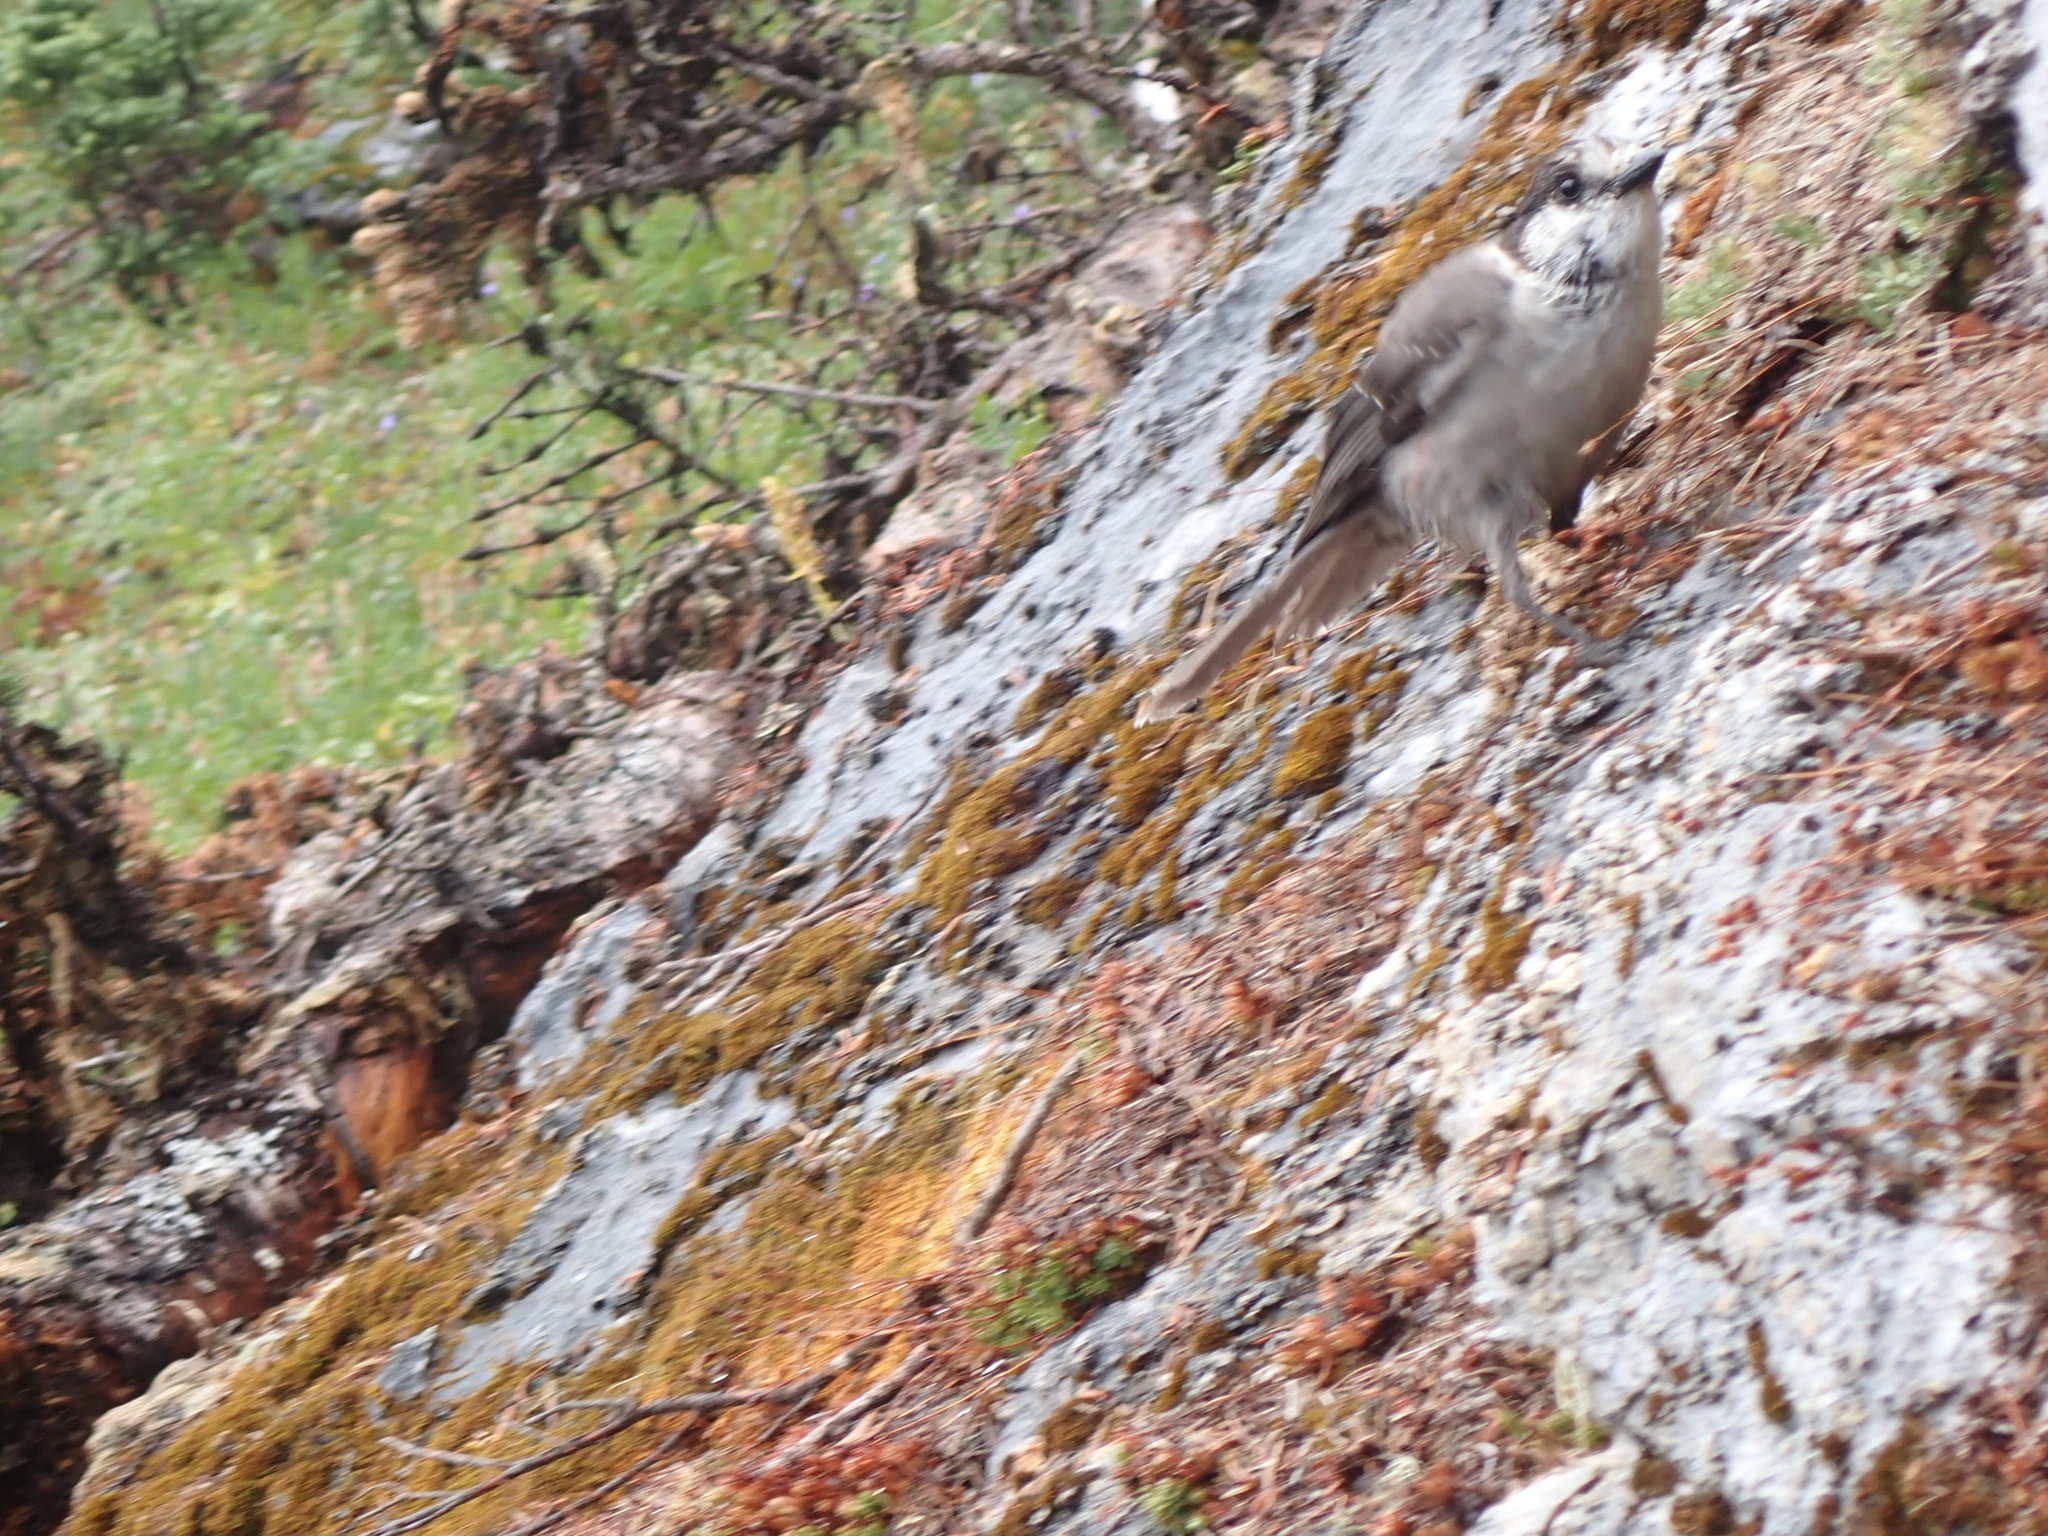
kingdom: Animalia
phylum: Chordata
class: Aves
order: Passeriformes
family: Corvidae
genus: Perisoreus
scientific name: Perisoreus canadensis
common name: Gray jay
